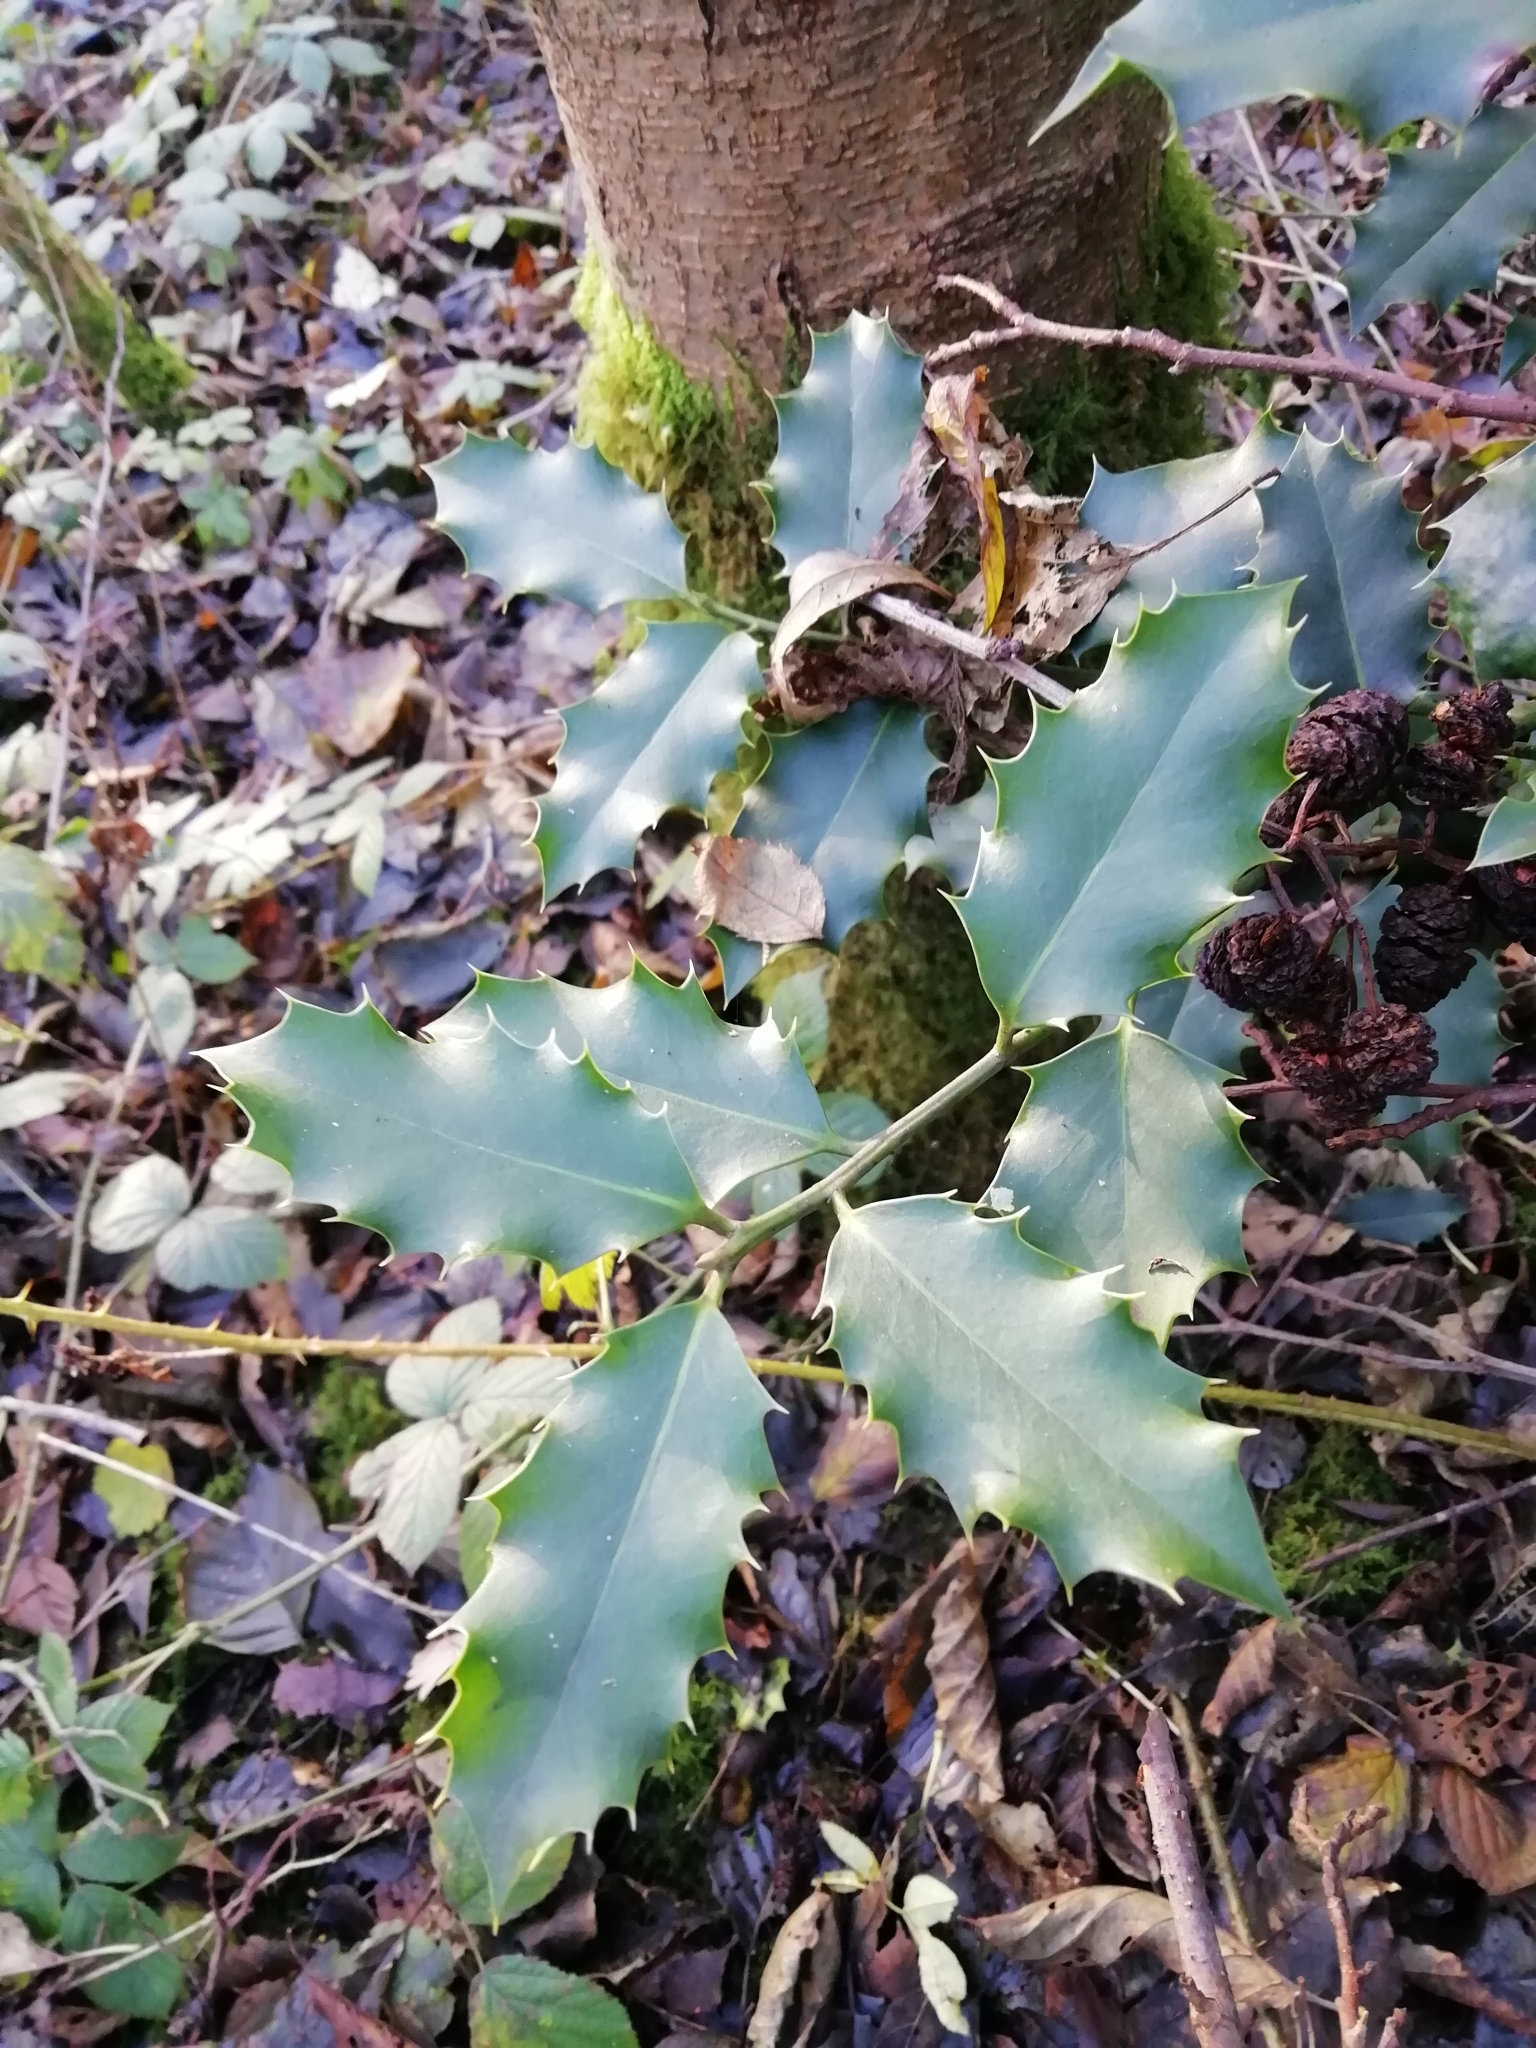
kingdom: Plantae
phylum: Tracheophyta
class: Magnoliopsida
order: Aquifoliales
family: Aquifoliaceae
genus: Ilex
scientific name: Ilex aquifolium
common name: English holly
